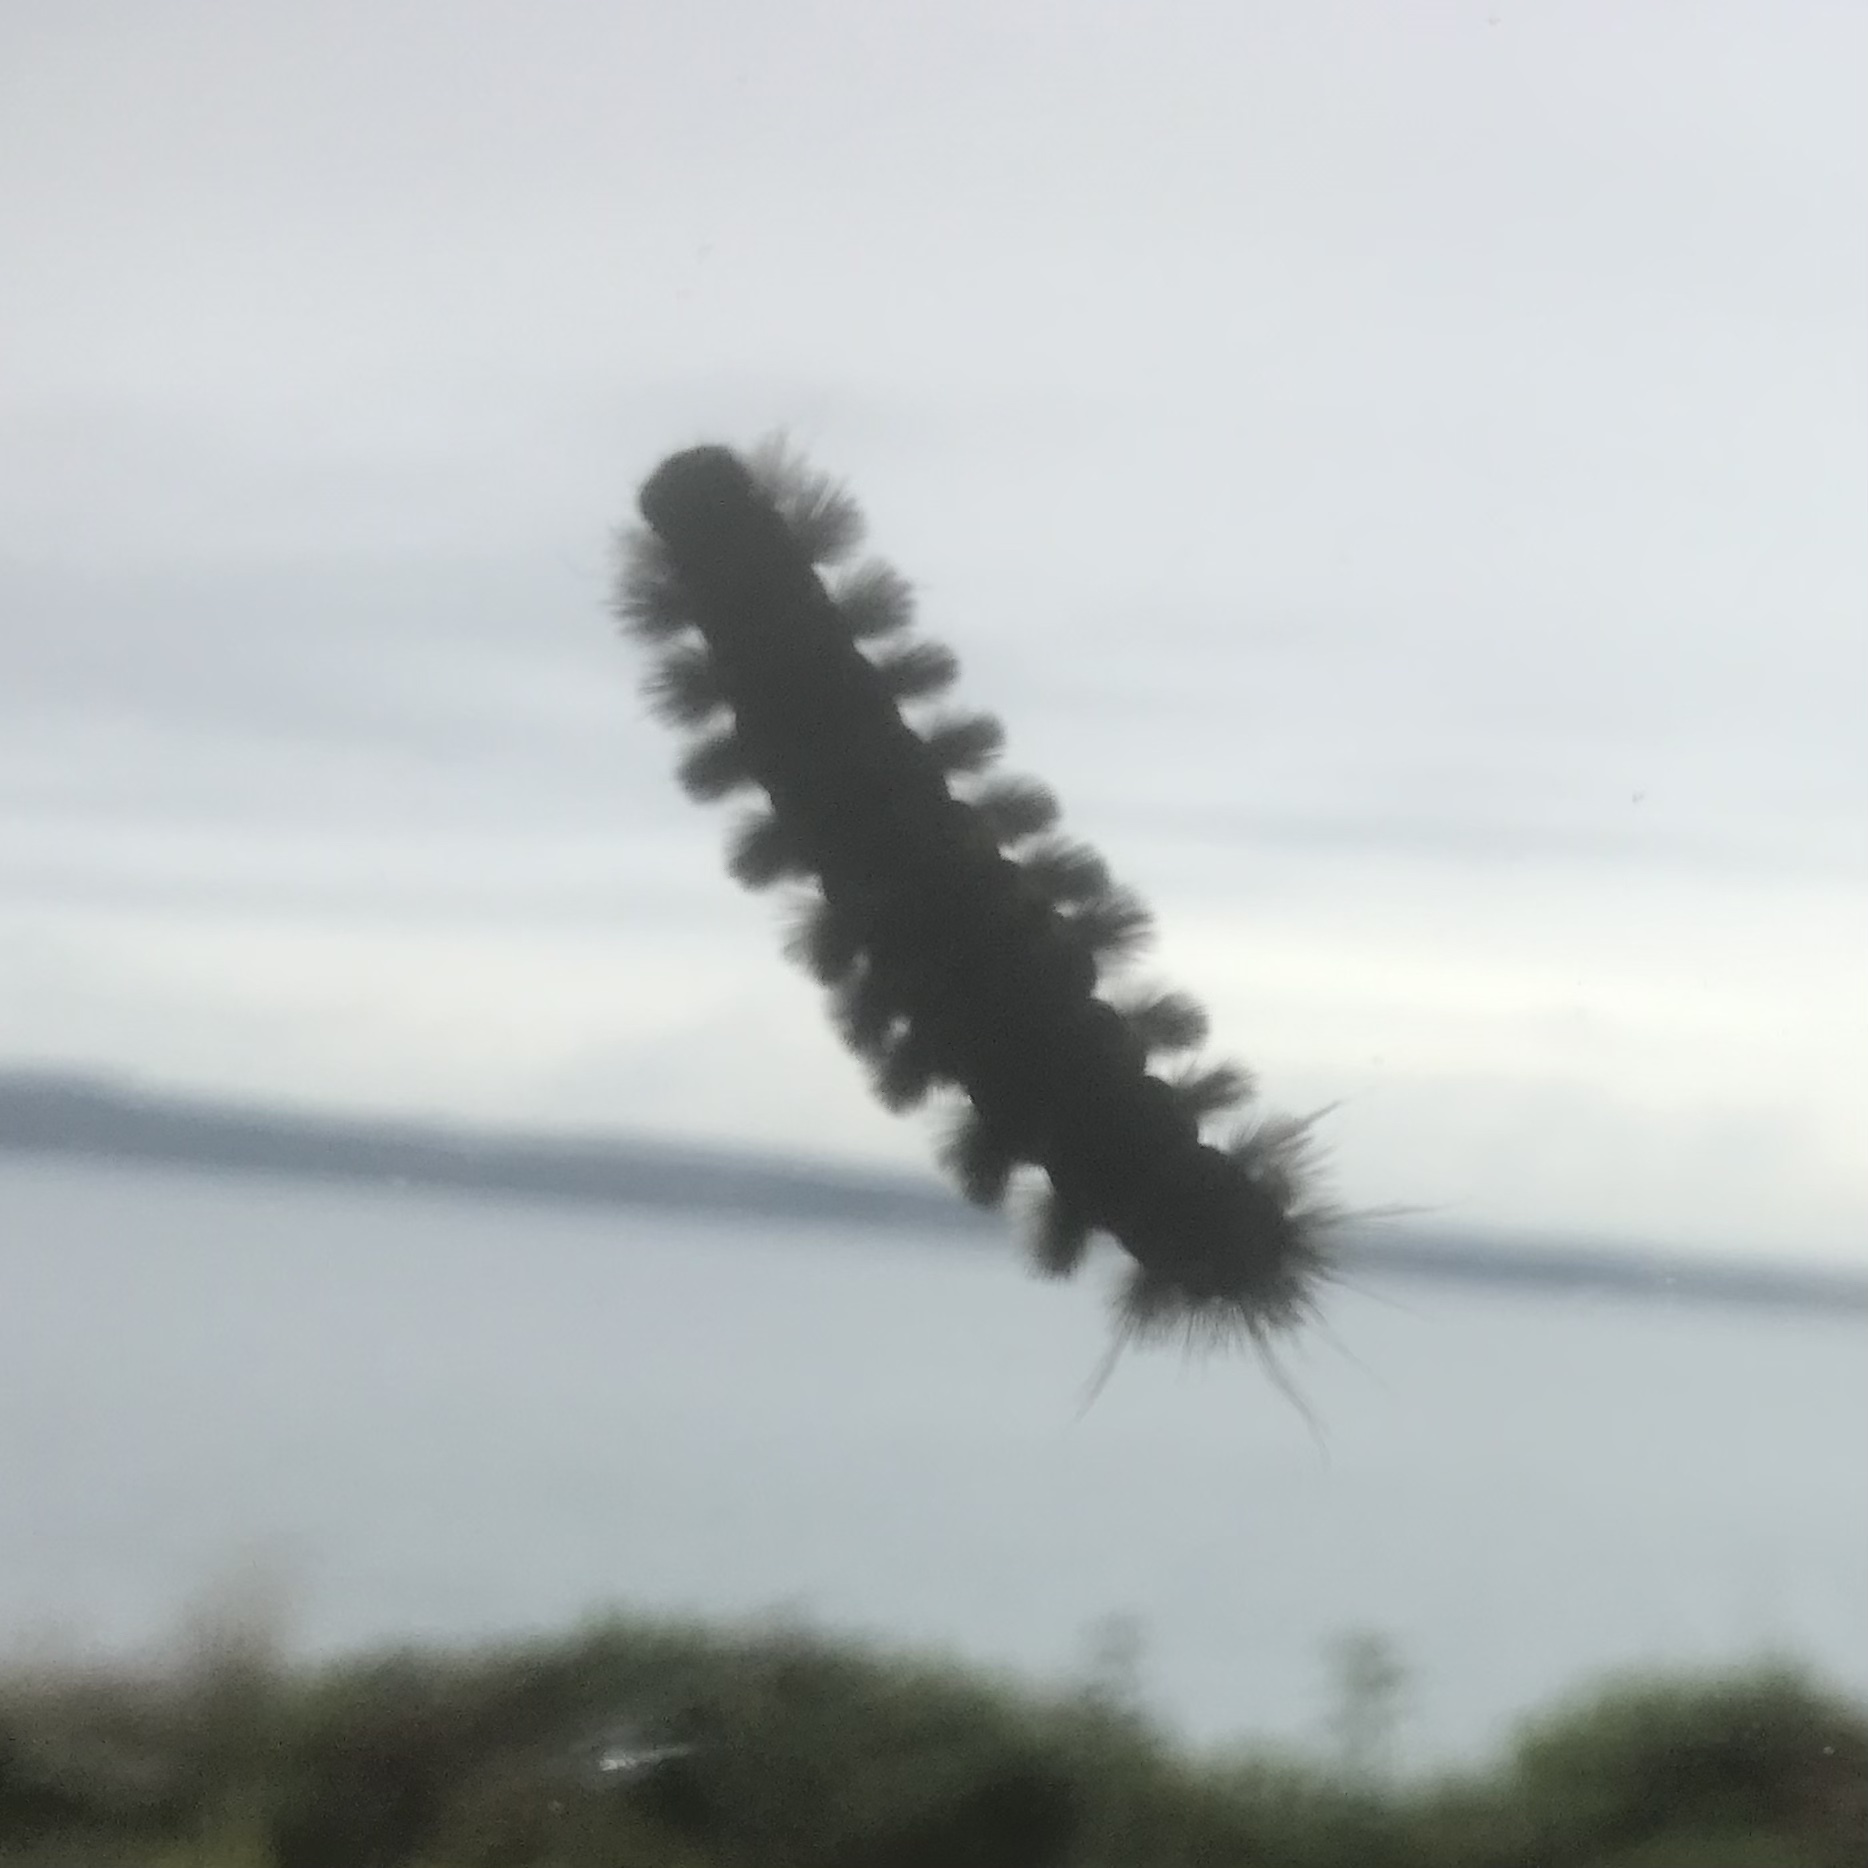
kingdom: Animalia
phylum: Arthropoda
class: Insecta
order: Lepidoptera
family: Erebidae
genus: Lophocampa
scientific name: Lophocampa roseata
